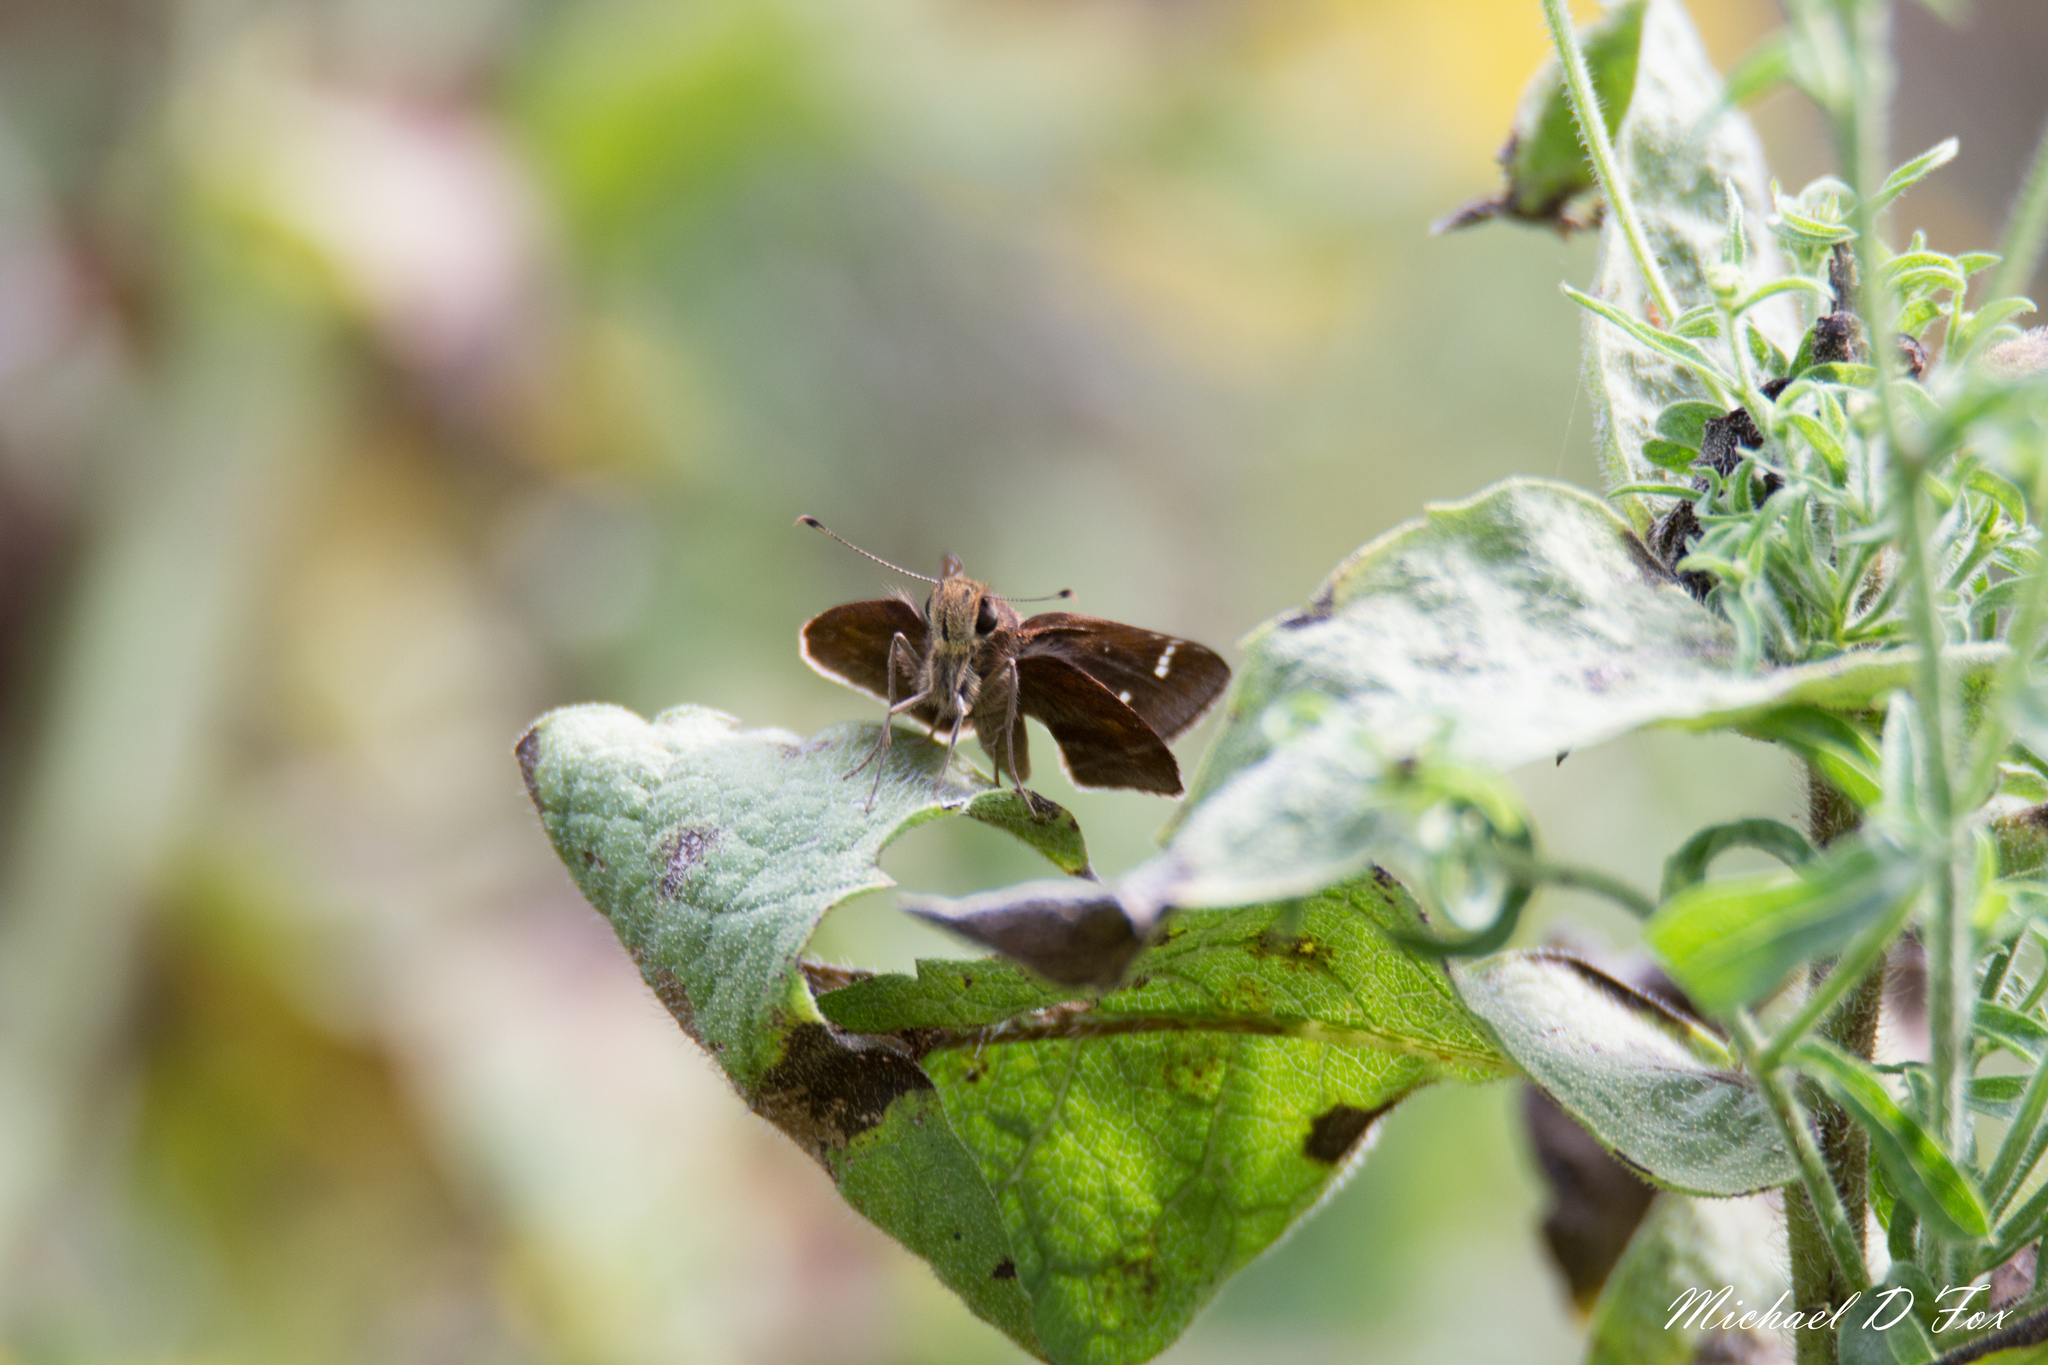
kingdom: Animalia
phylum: Arthropoda
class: Insecta
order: Lepidoptera
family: Hesperiidae
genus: Lerema
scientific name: Lerema accius
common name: Clouded skipper
